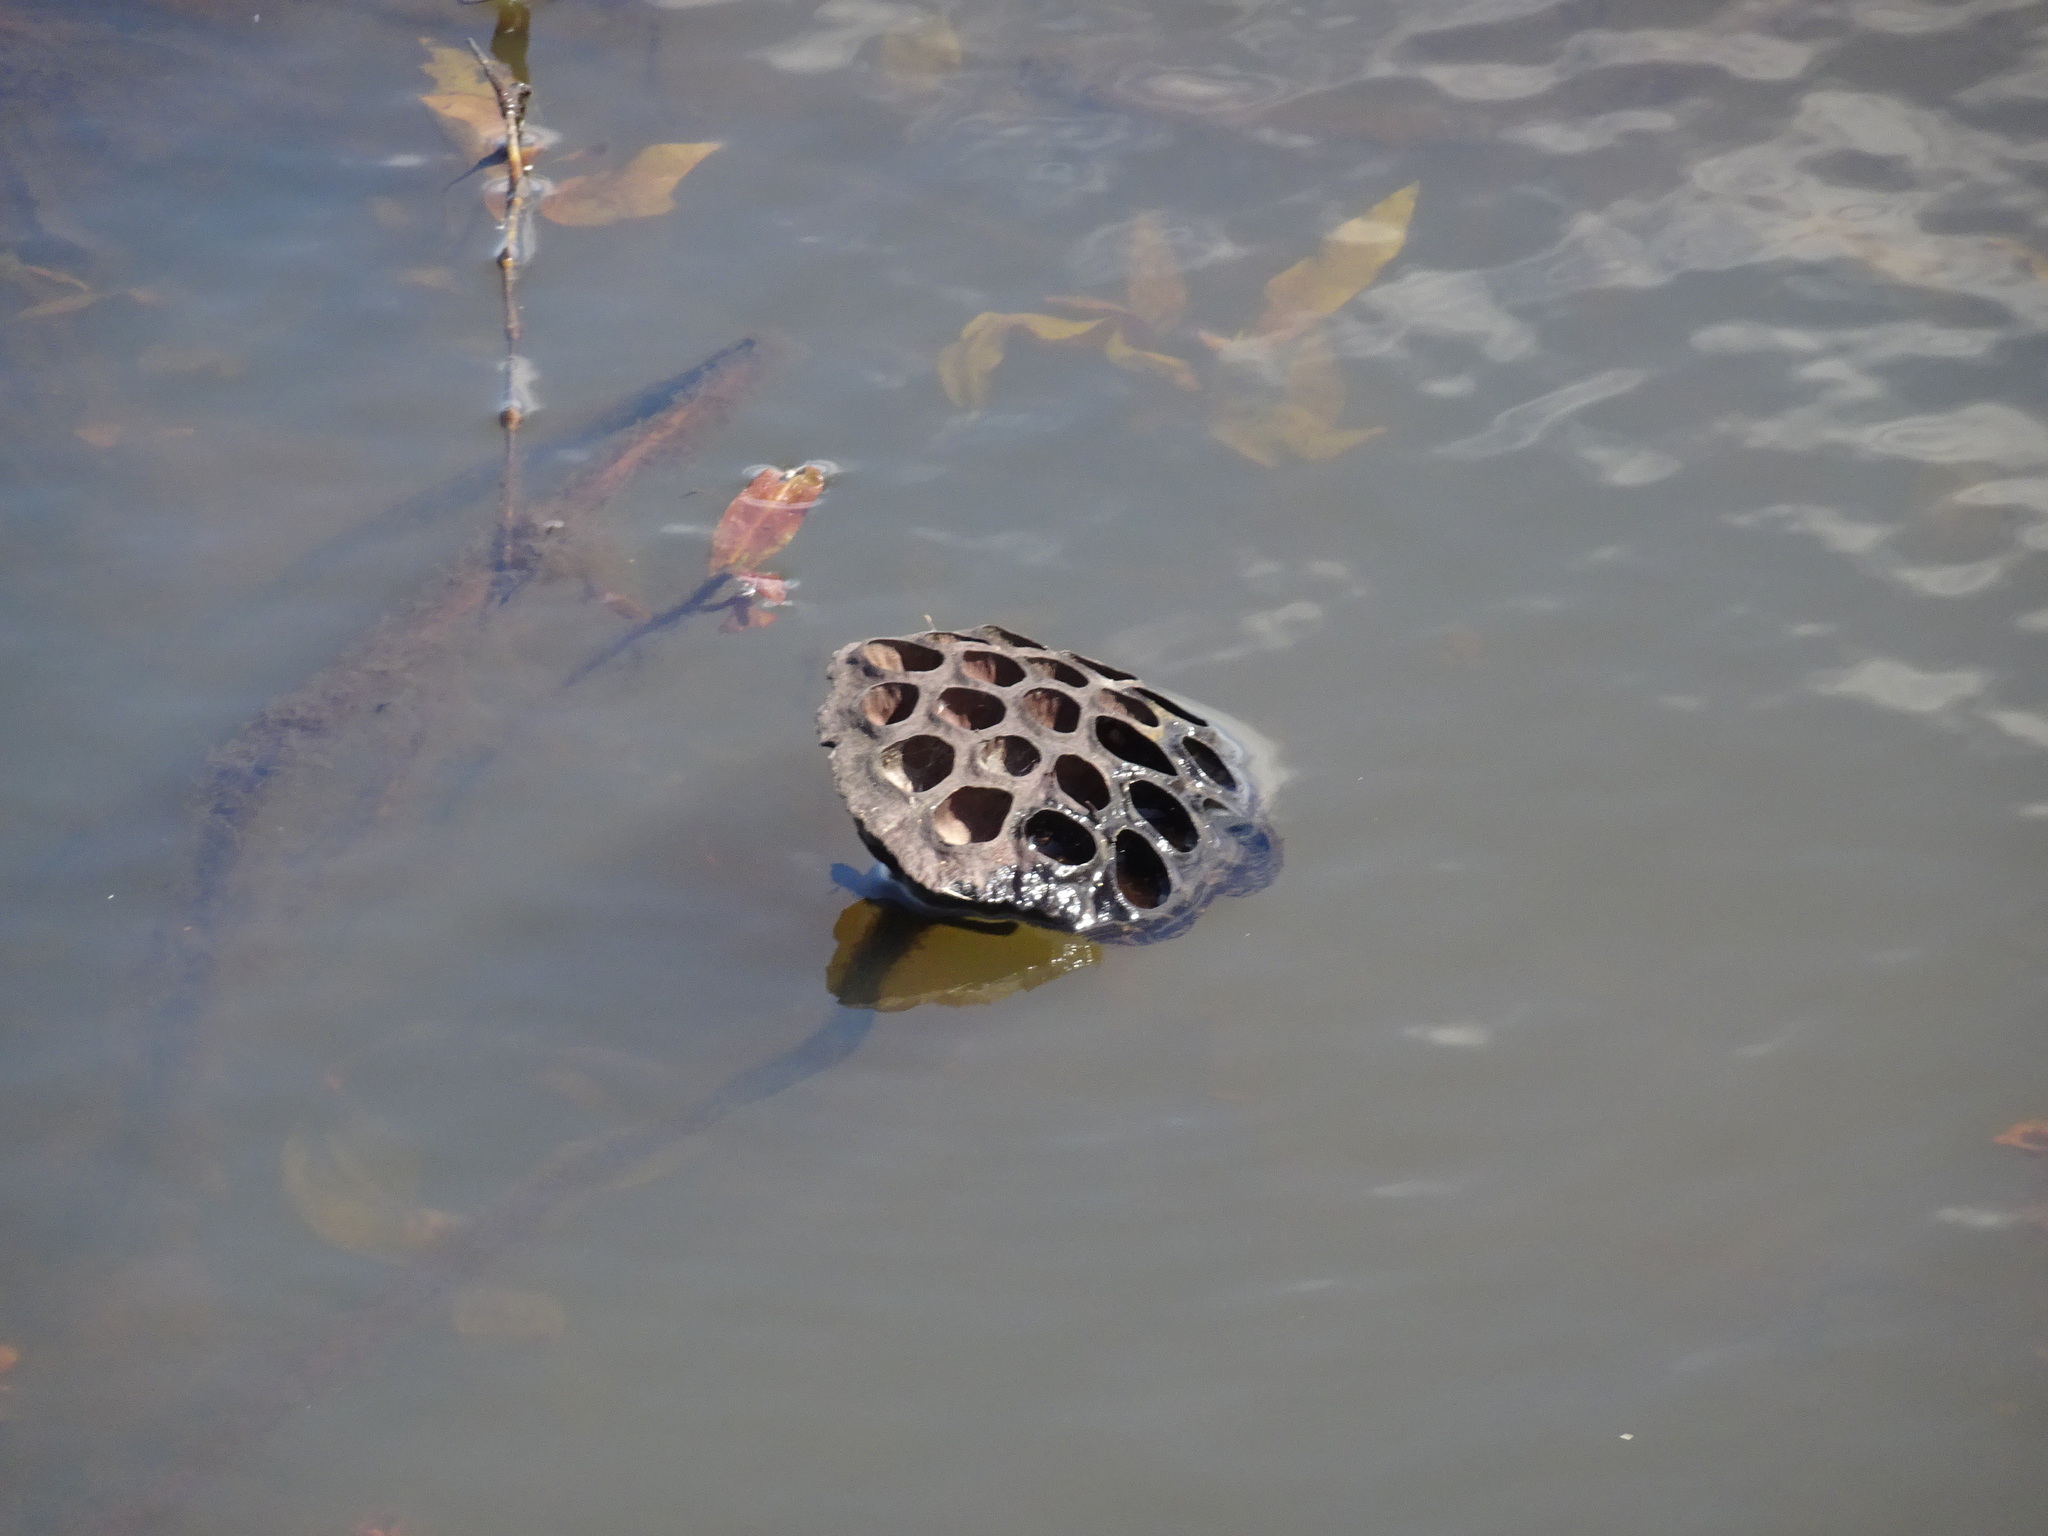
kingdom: Plantae
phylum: Tracheophyta
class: Magnoliopsida
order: Proteales
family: Nelumbonaceae
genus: Nelumbo
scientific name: Nelumbo lutea
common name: American lotus
